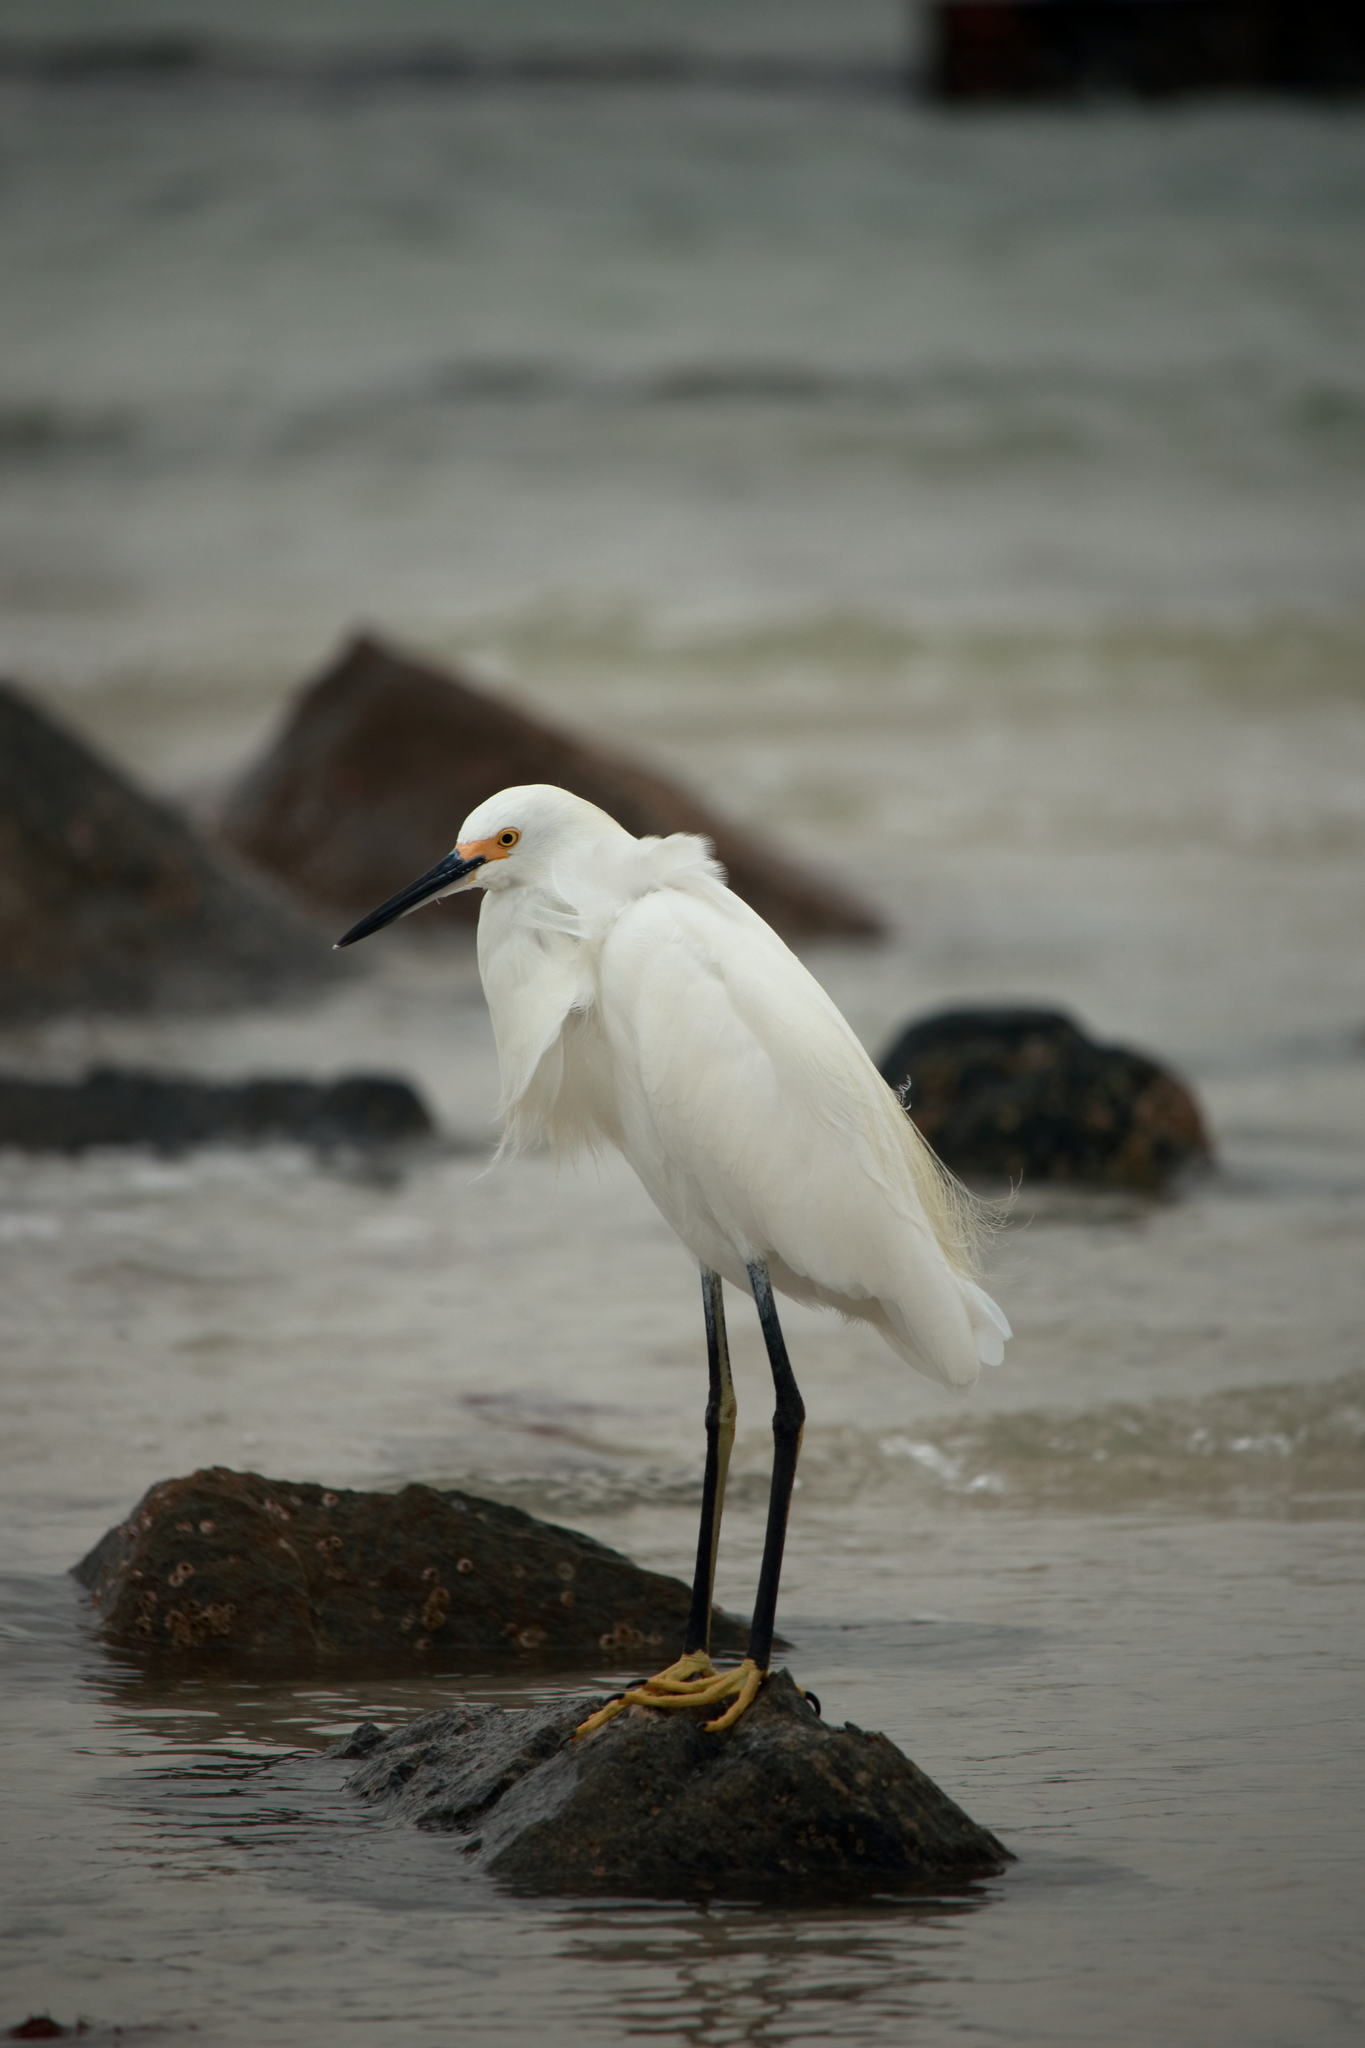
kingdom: Animalia
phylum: Chordata
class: Aves
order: Pelecaniformes
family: Ardeidae
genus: Egretta
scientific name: Egretta thula
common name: Snowy egret
